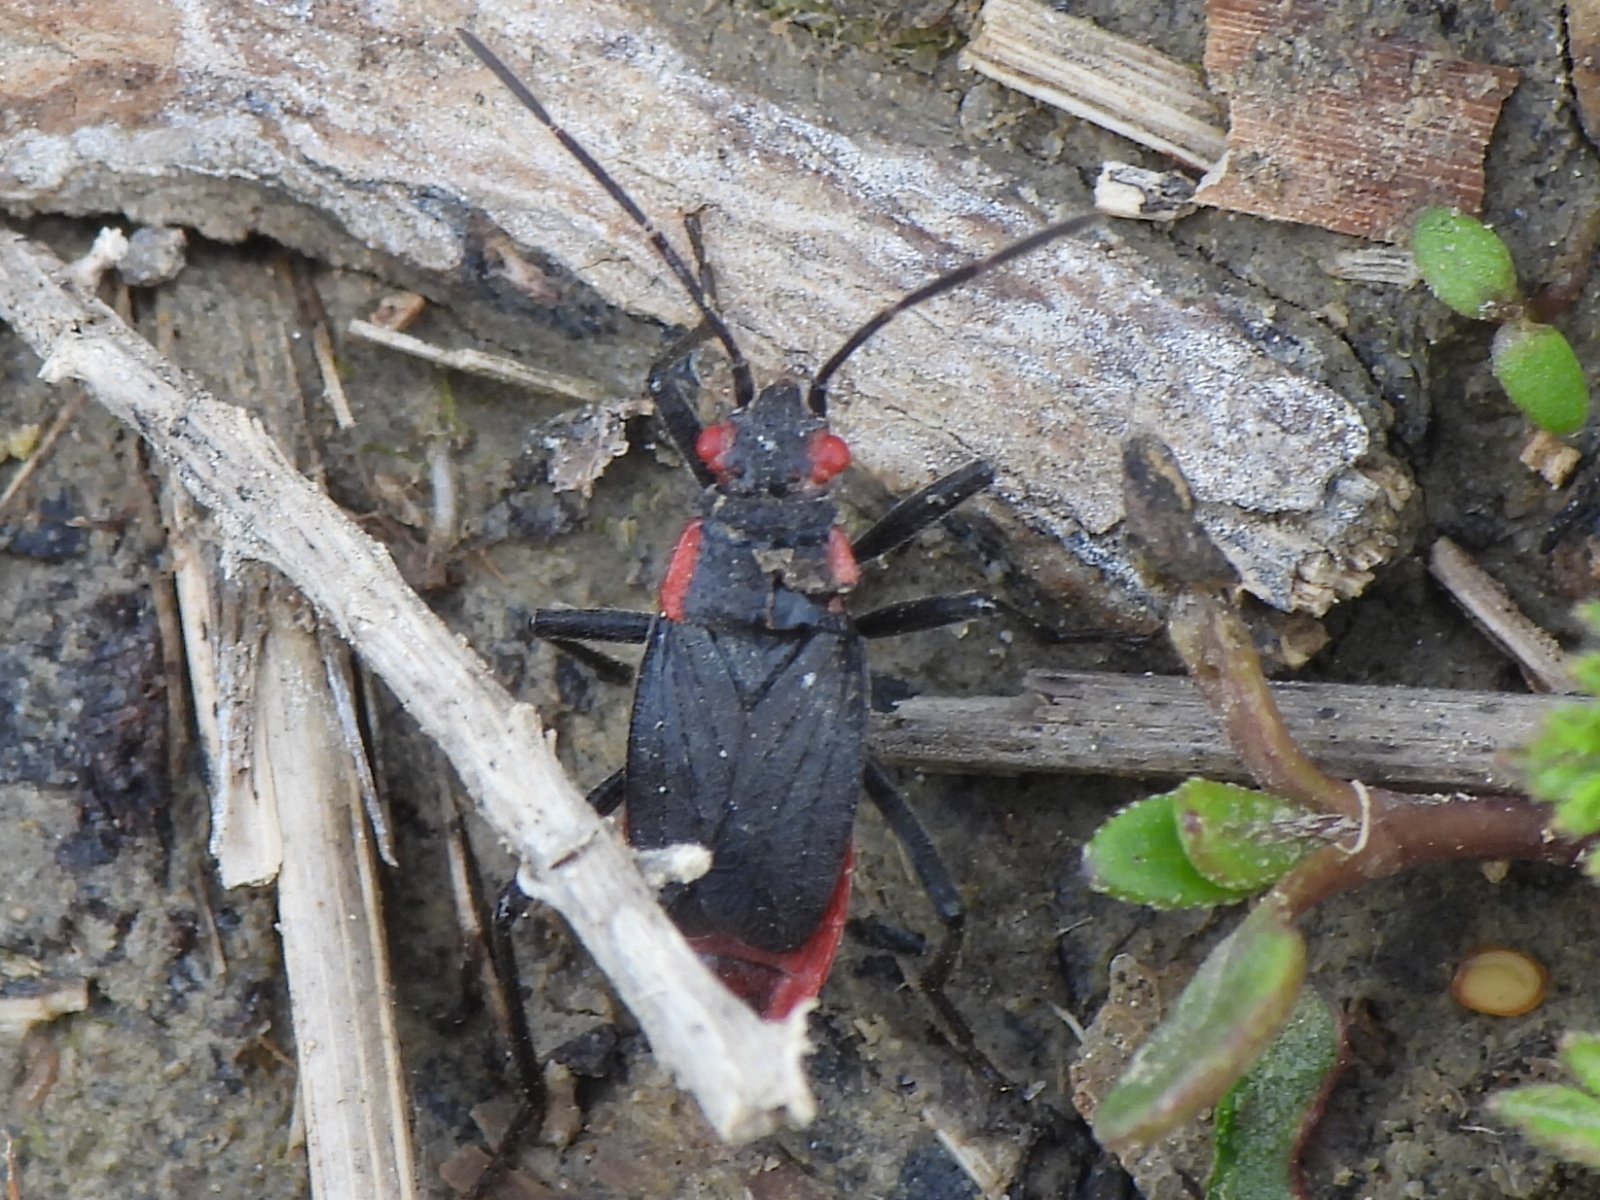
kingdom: Animalia
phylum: Arthropoda
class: Insecta
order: Hemiptera
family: Rhopalidae
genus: Jadera
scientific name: Jadera haematoloma
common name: Red-shouldered bug
